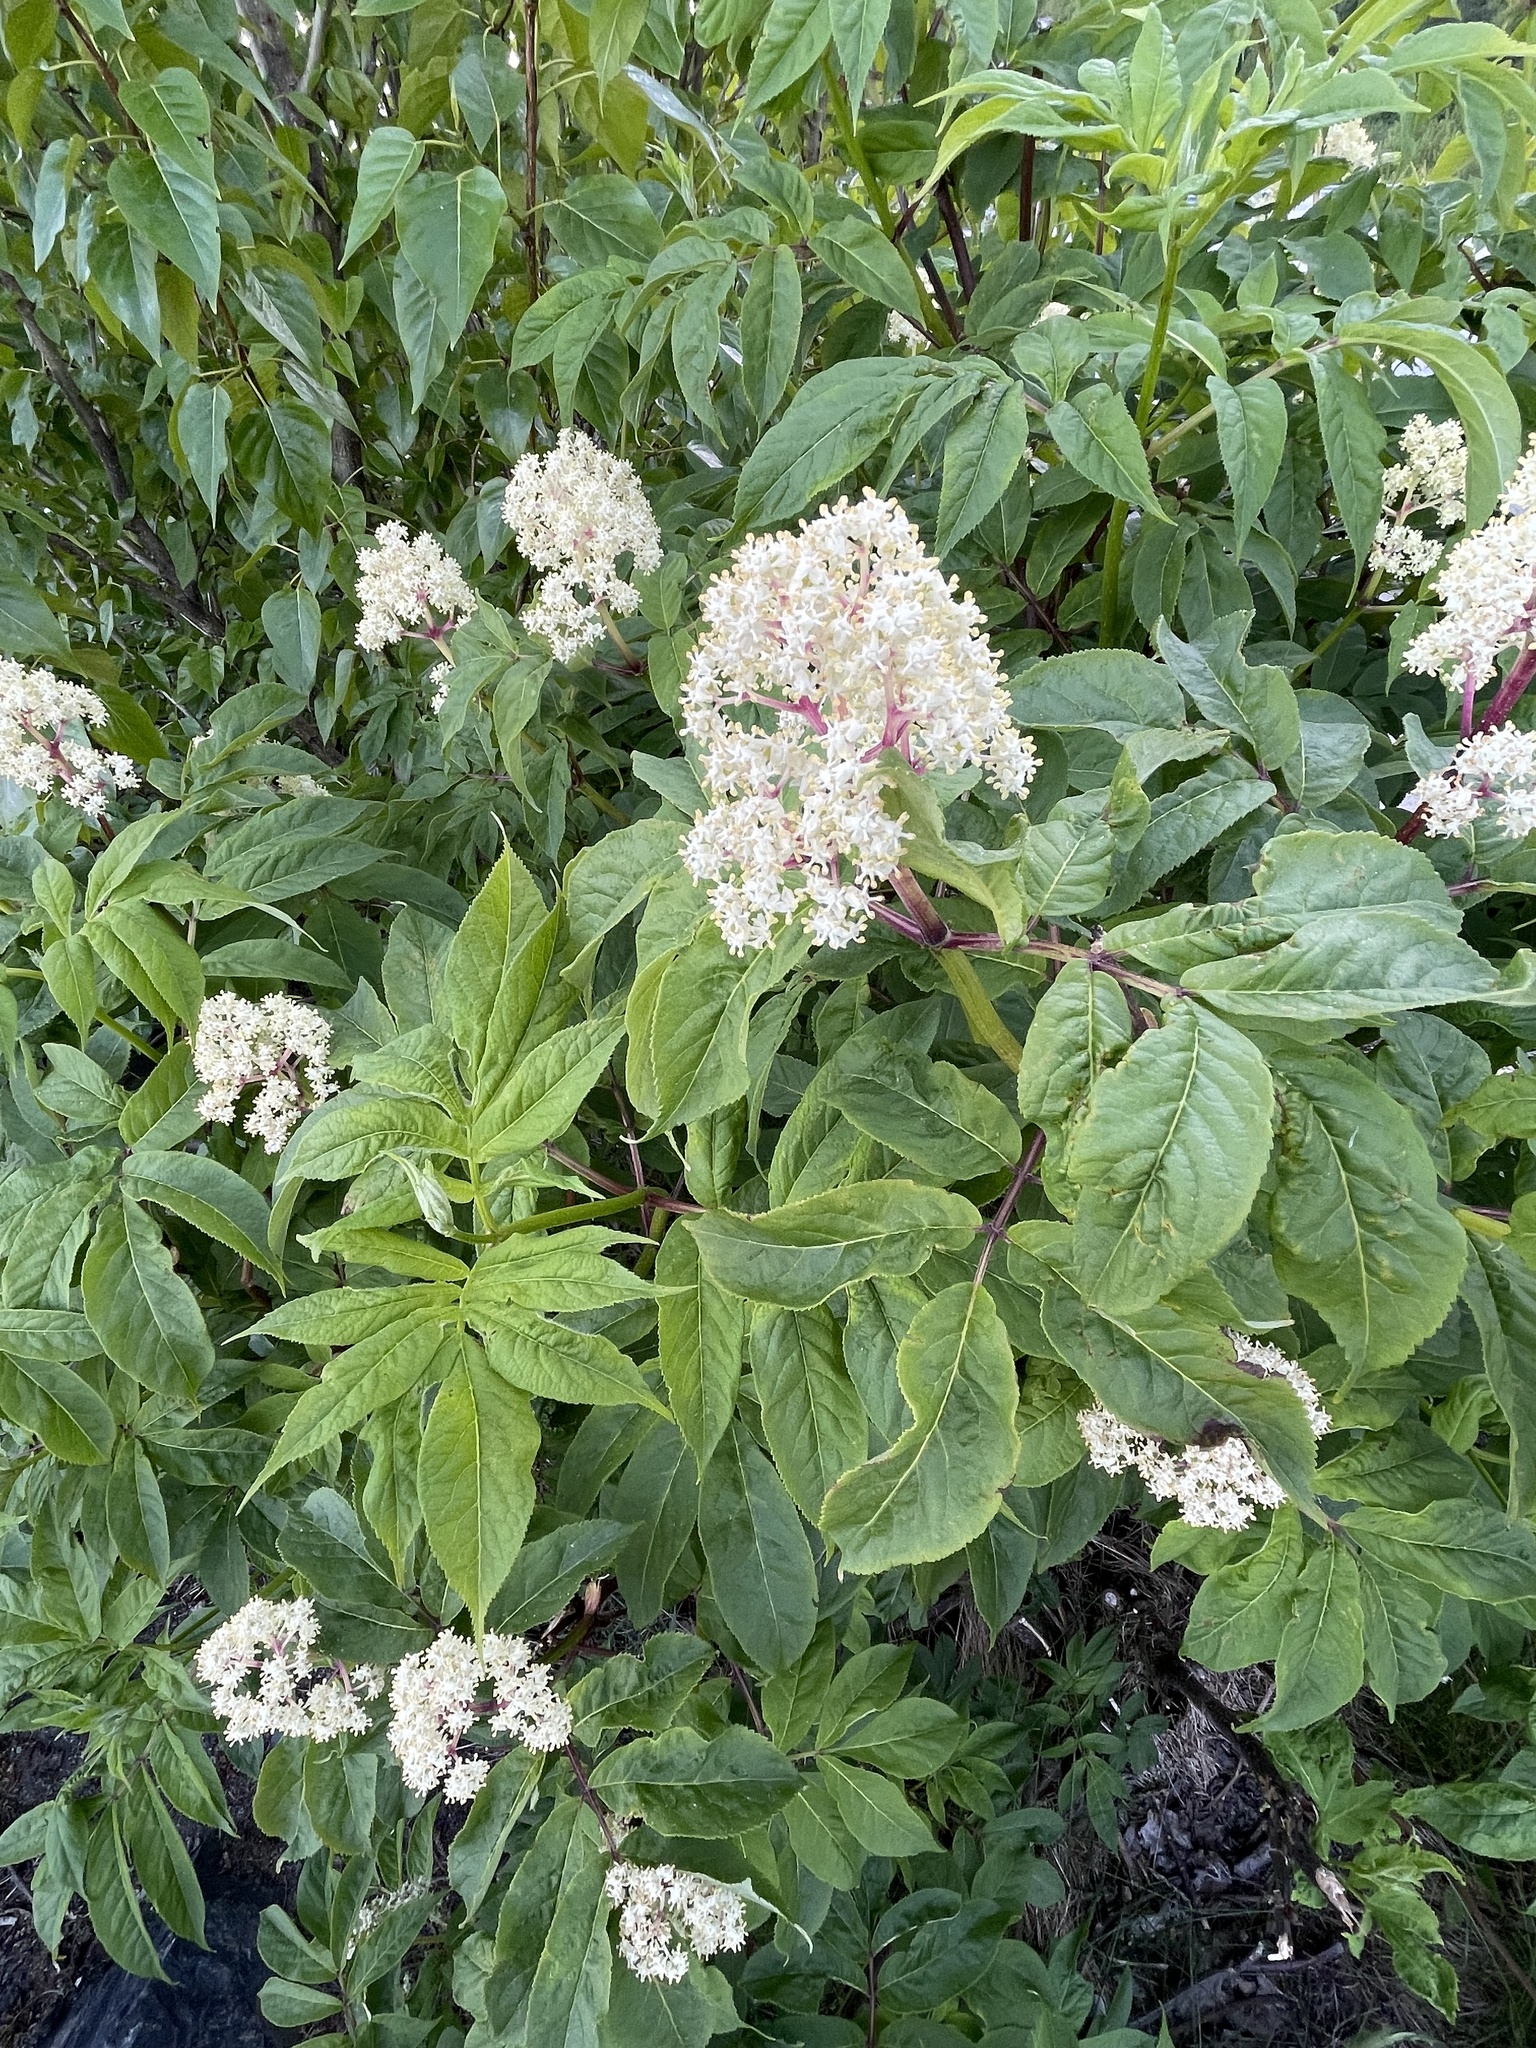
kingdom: Plantae
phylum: Tracheophyta
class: Magnoliopsida
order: Dipsacales
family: Viburnaceae
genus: Sambucus
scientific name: Sambucus racemosa
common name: Red-berried elder
